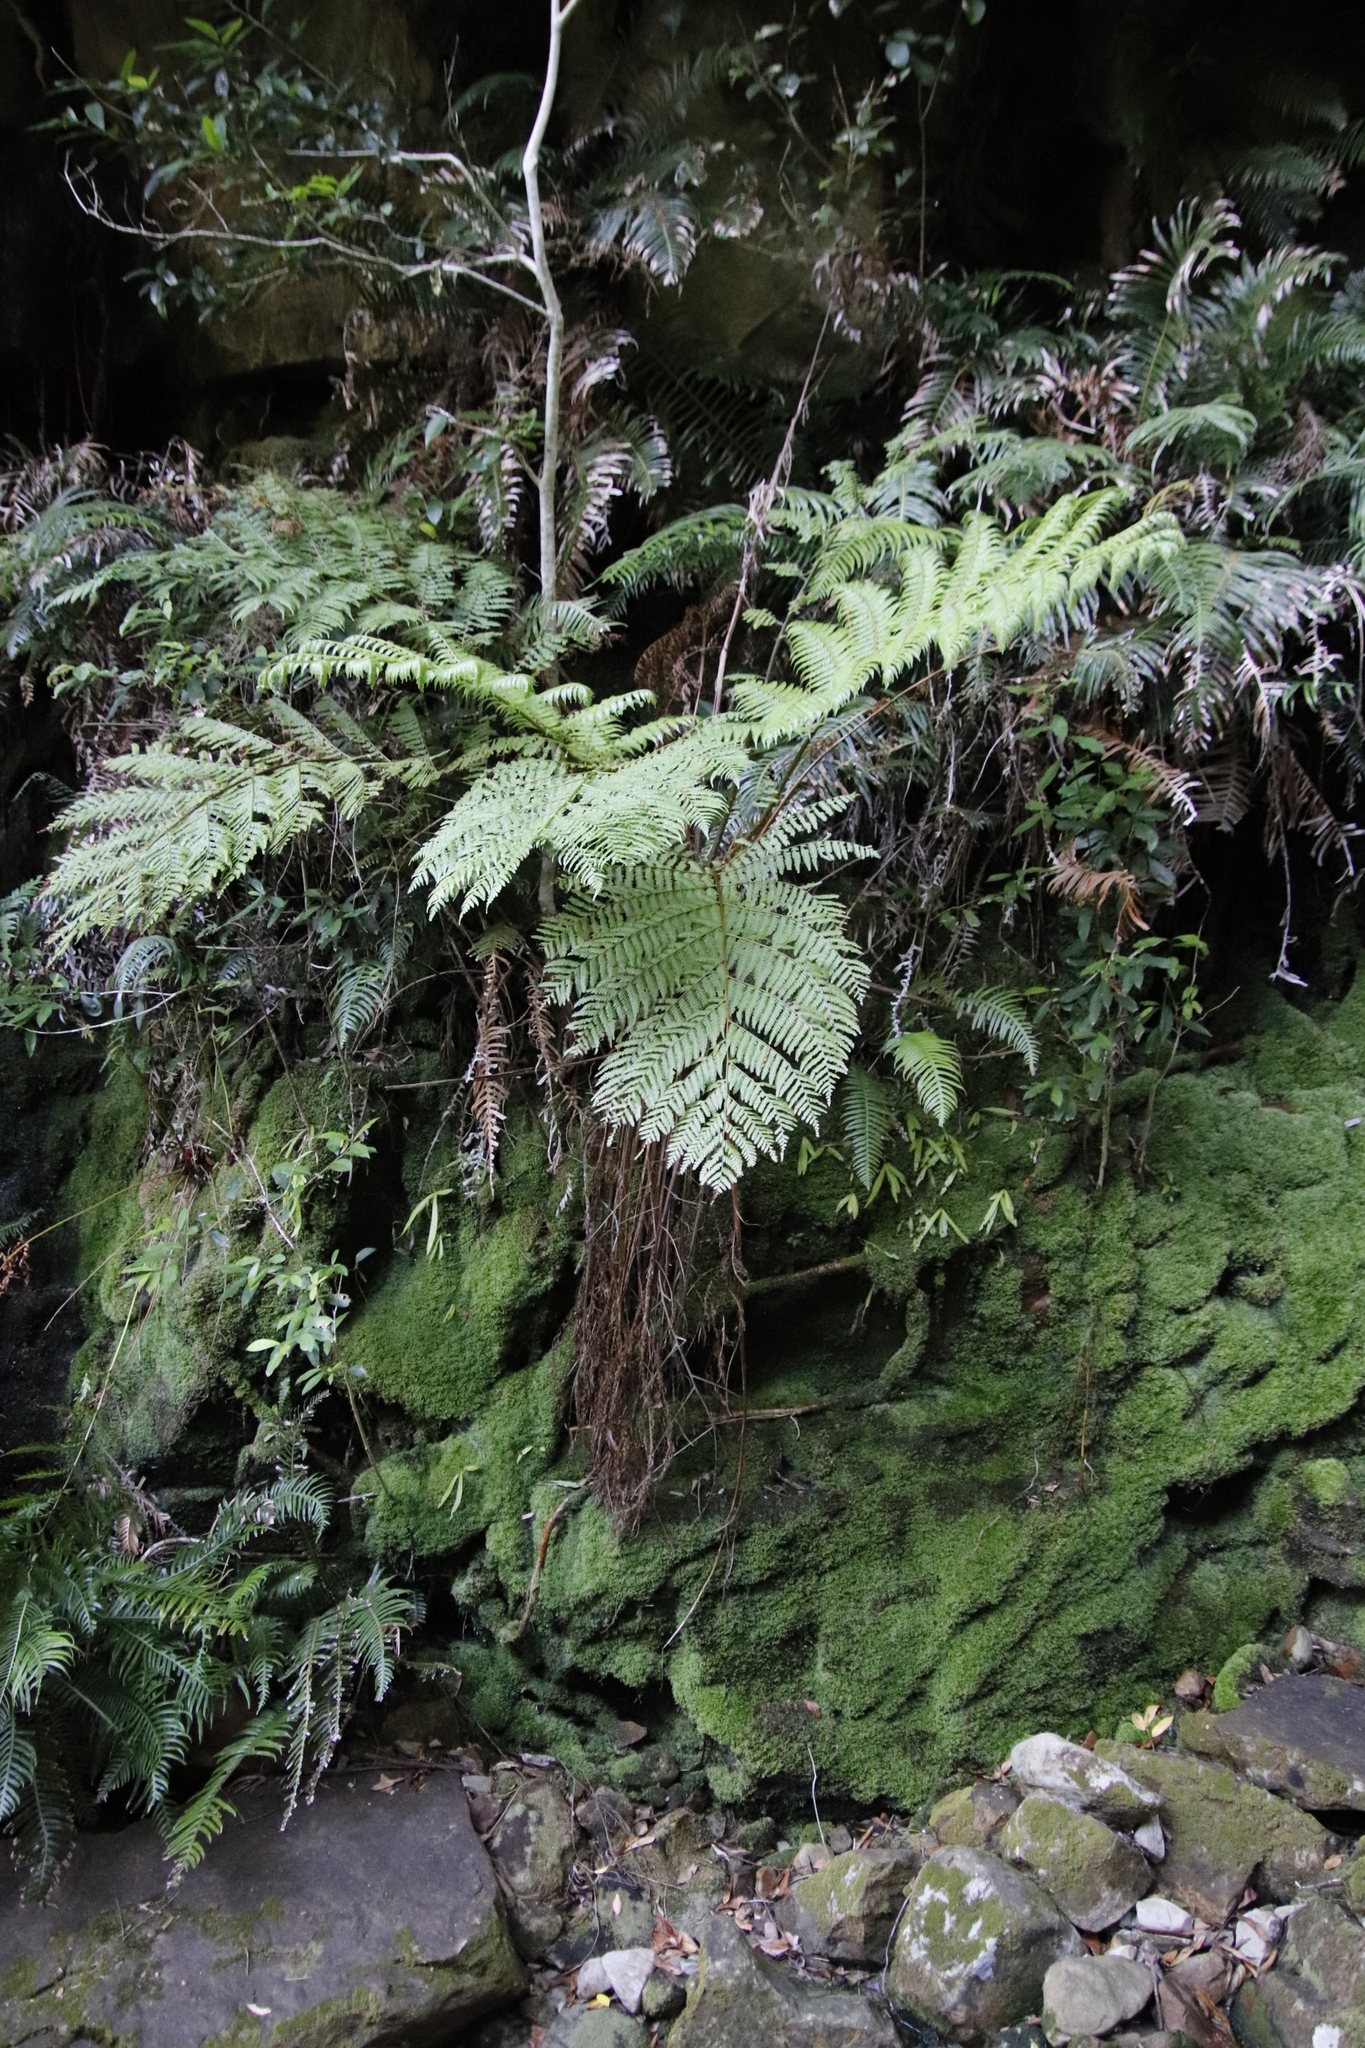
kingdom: Plantae
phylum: Tracheophyta
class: Polypodiopsida
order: Cyatheales
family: Cyatheaceae
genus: Gymnosphaera
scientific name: Gymnosphaera capensis
